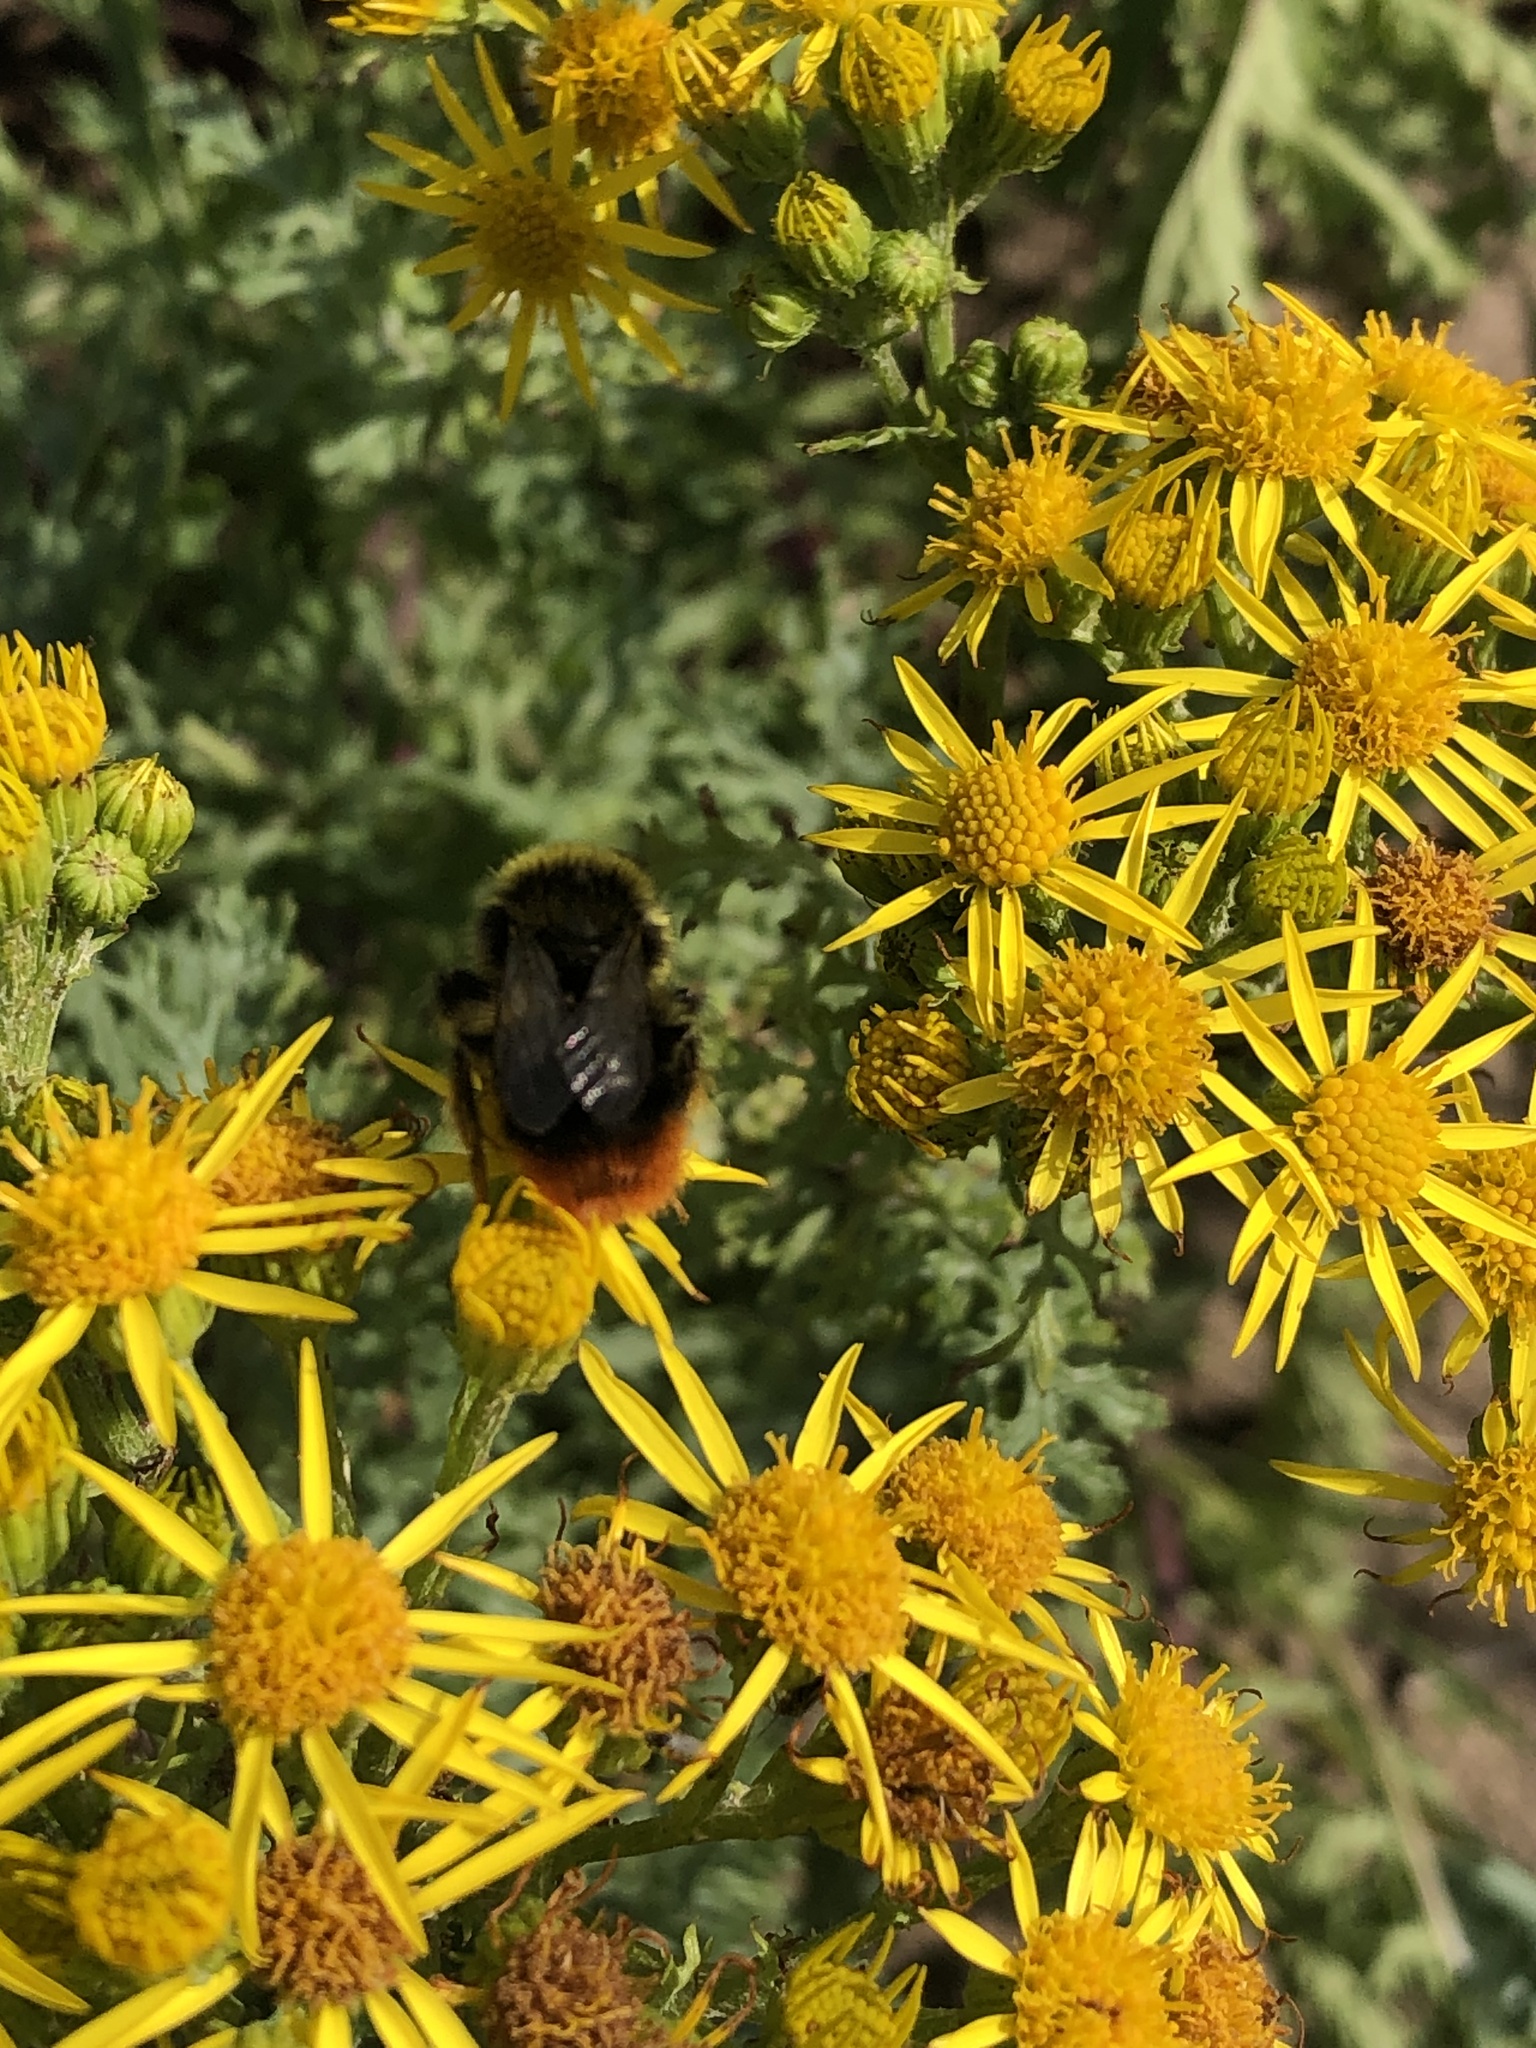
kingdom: Animalia
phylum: Arthropoda
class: Insecta
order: Hymenoptera
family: Apidae
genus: Bombus
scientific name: Bombus lapidarius
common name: Large red-tailed humble-bee
